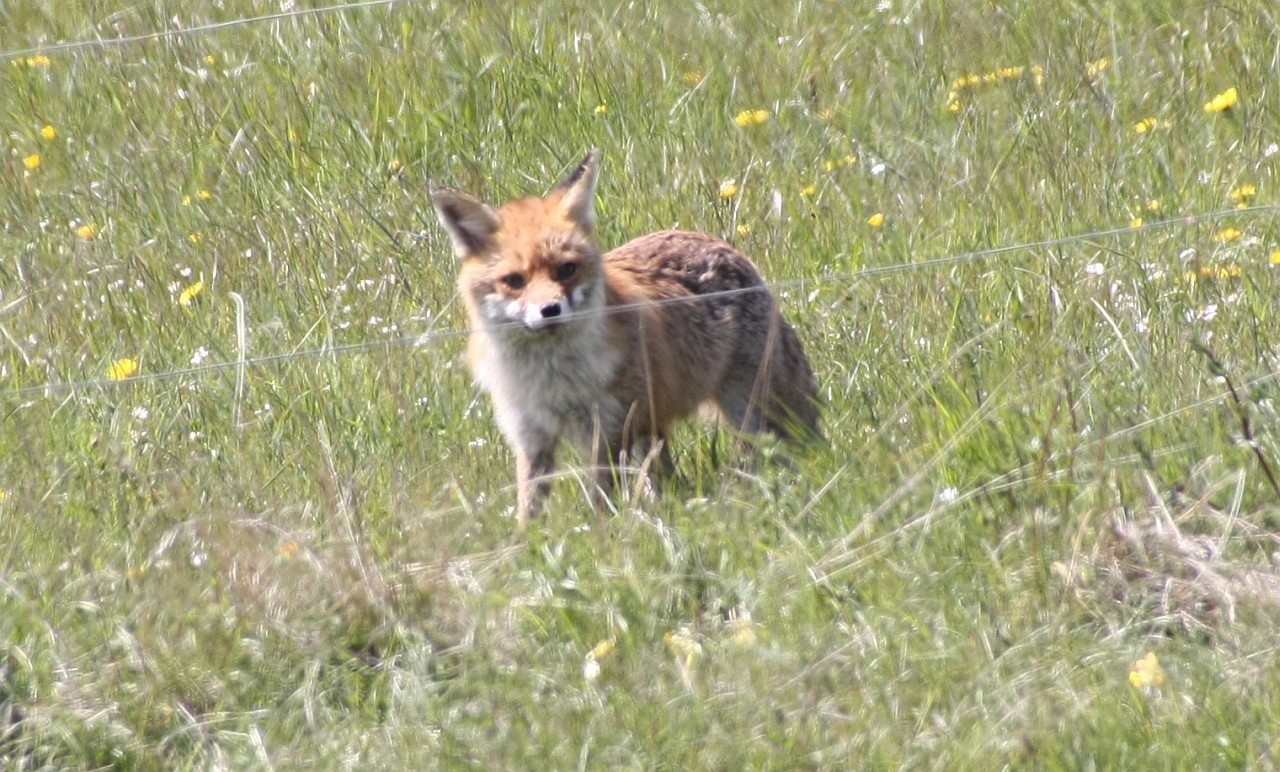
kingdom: Animalia
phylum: Chordata
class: Mammalia
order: Carnivora
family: Canidae
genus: Vulpes
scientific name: Vulpes vulpes
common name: Red fox
